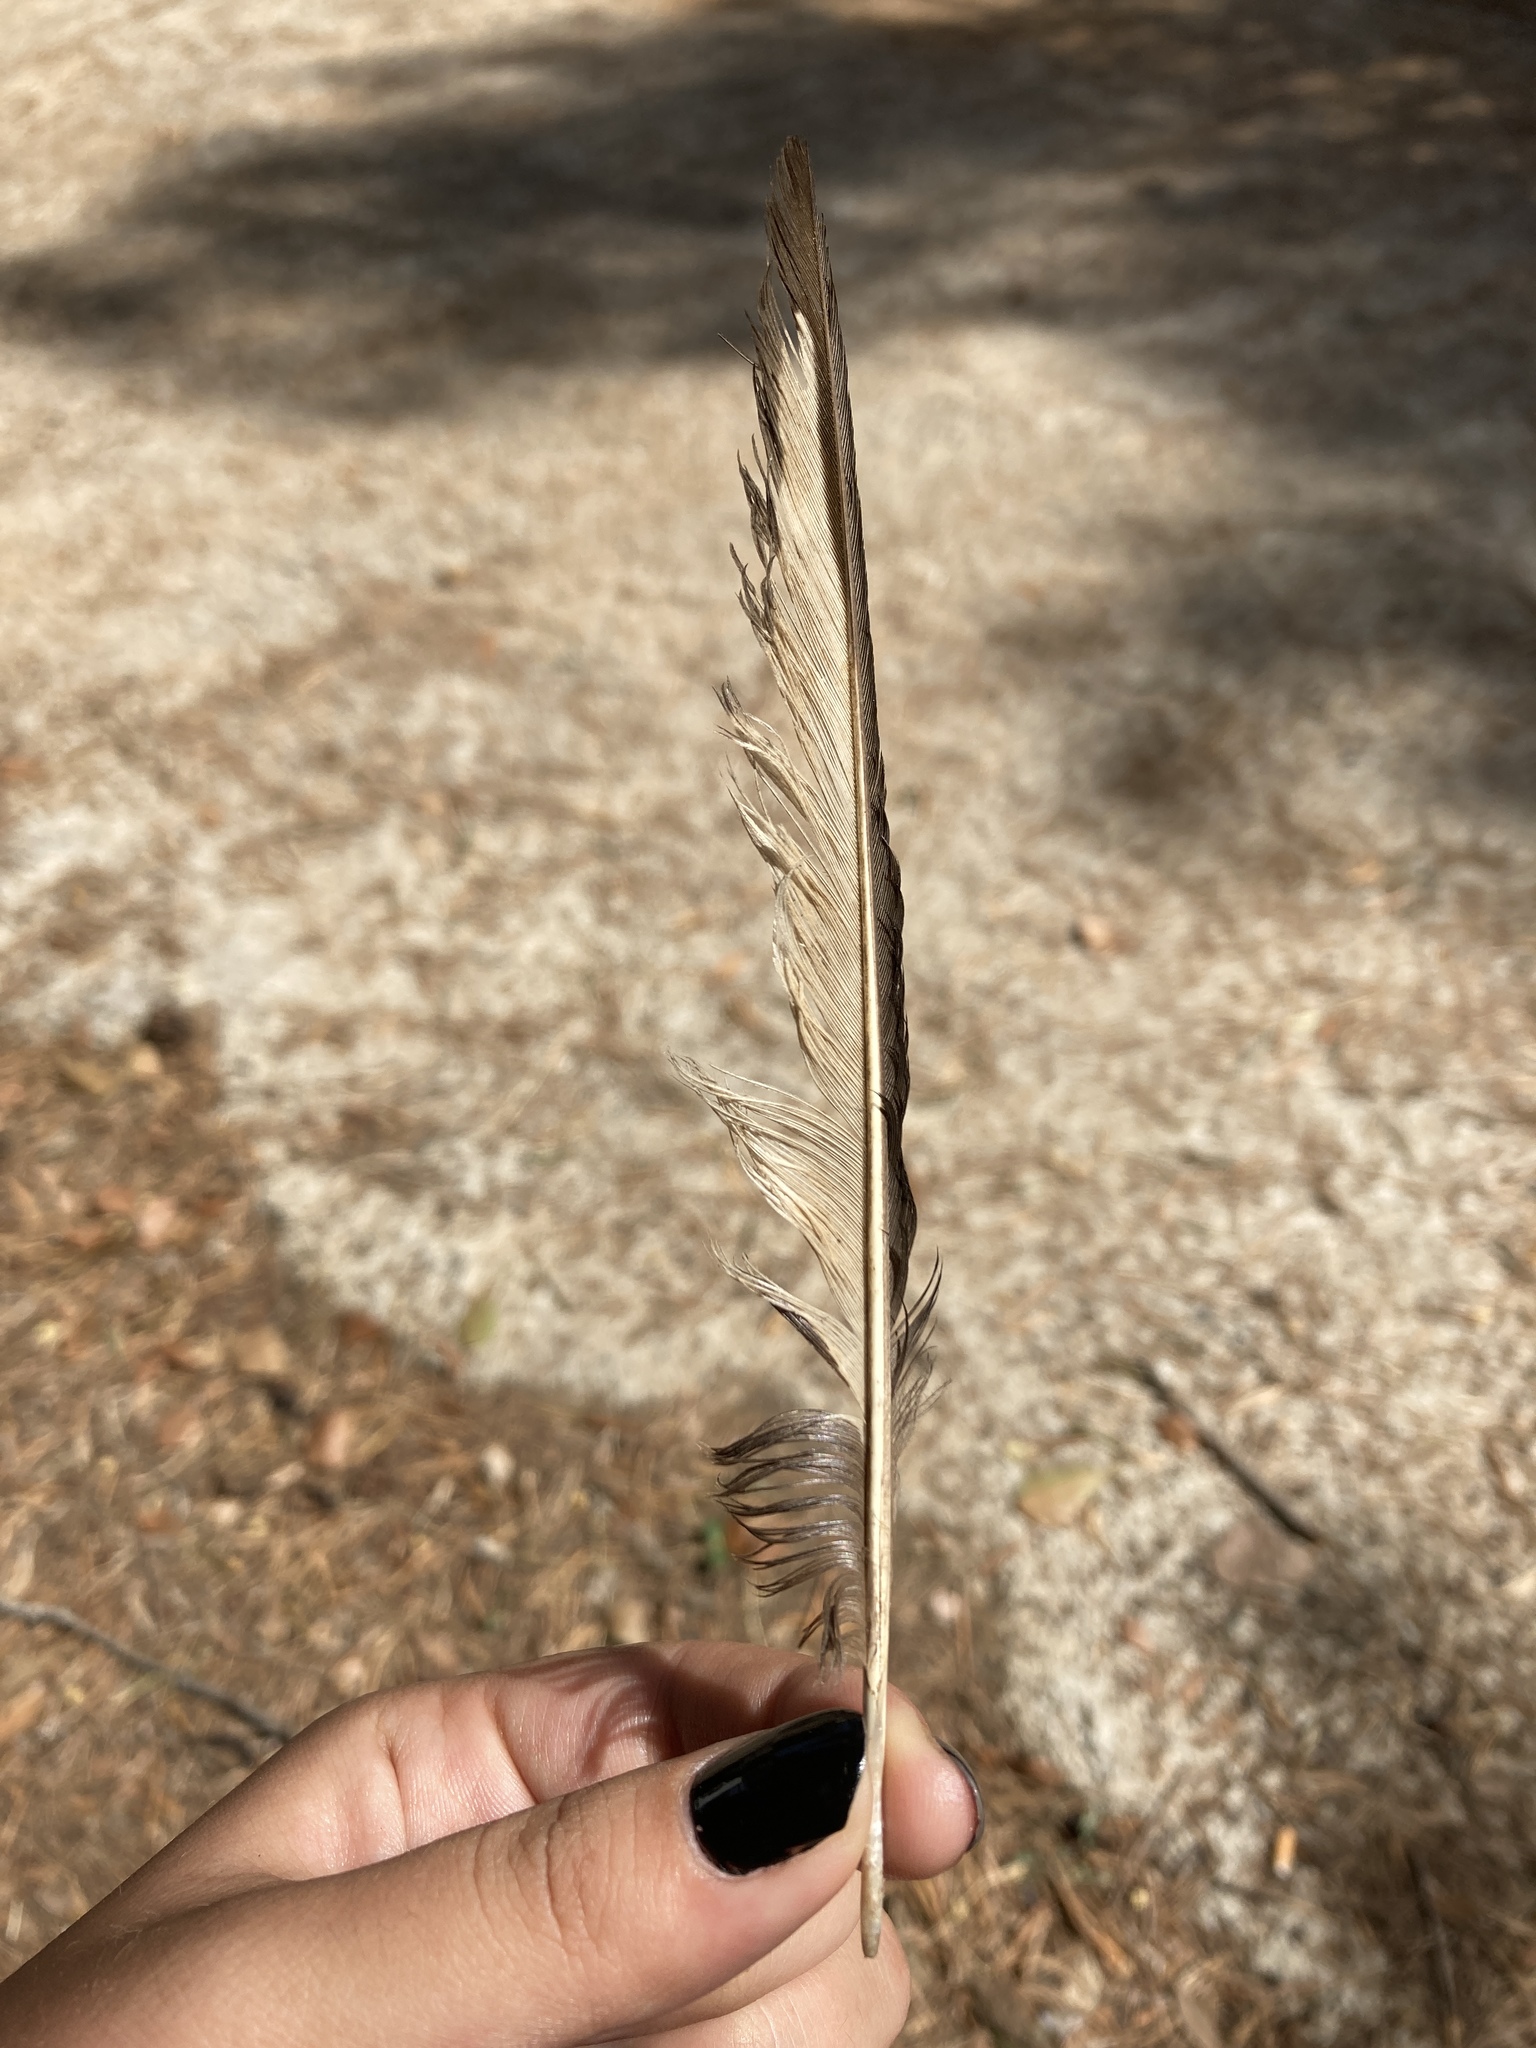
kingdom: Animalia
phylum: Chordata
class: Aves
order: Passeriformes
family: Corvidae
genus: Pica
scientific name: Pica pica
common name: Eurasian magpie
